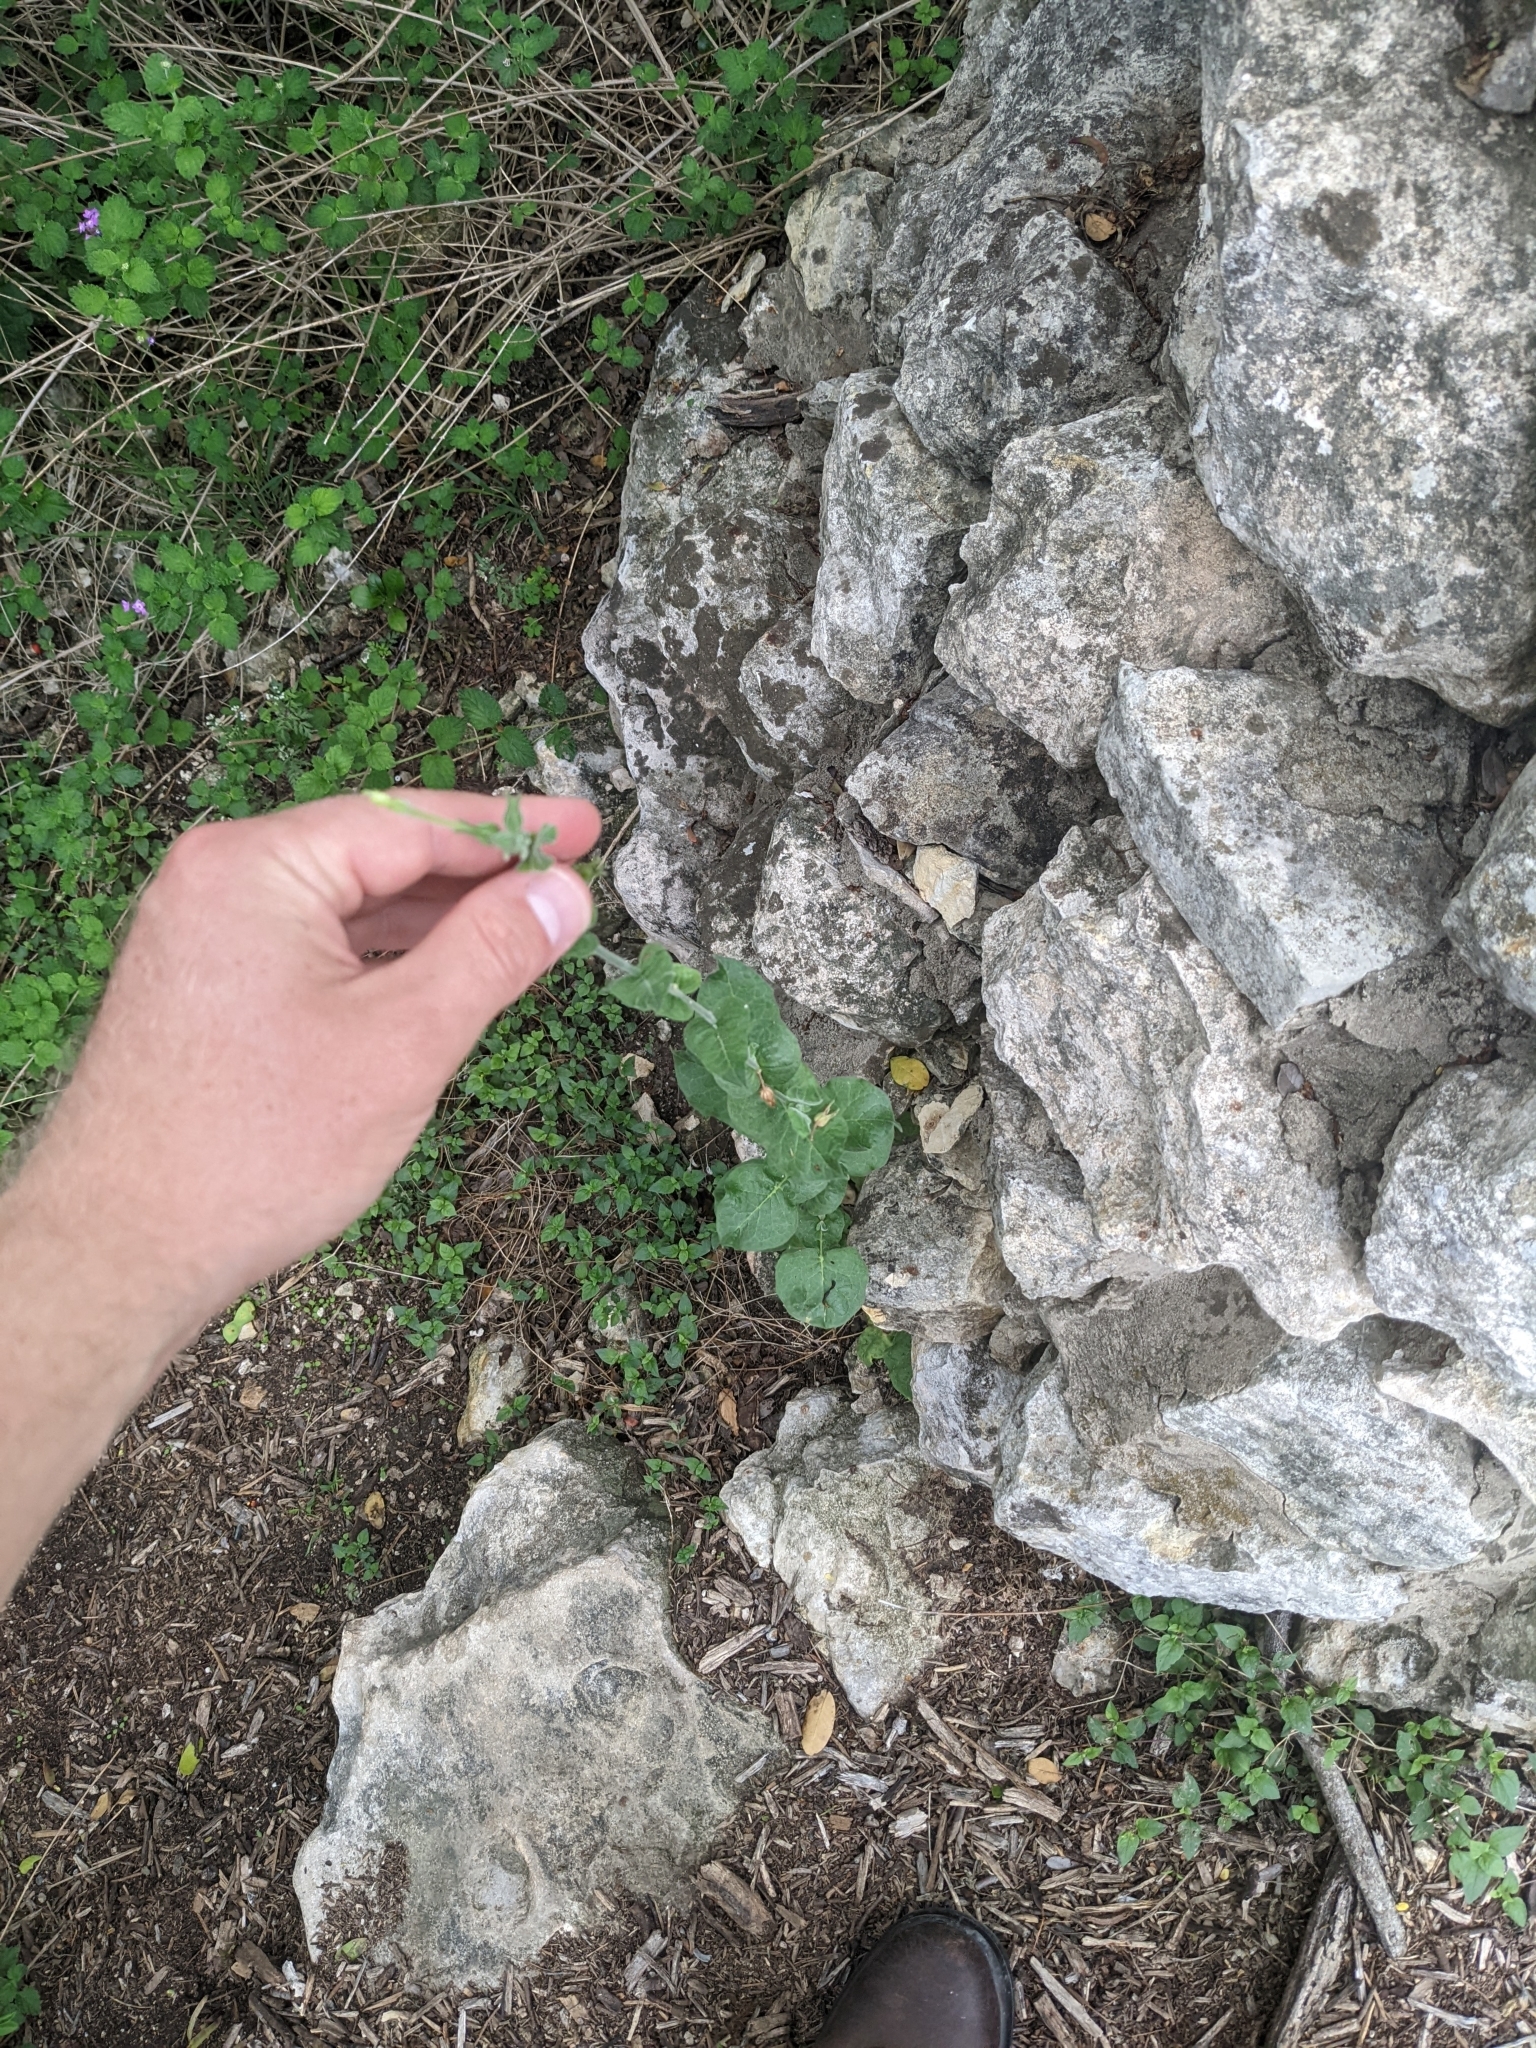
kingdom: Plantae
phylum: Tracheophyta
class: Magnoliopsida
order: Solanales
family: Solanaceae
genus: Nicotiana
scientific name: Nicotiana repanda
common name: Fiddle-leaf tobacco
